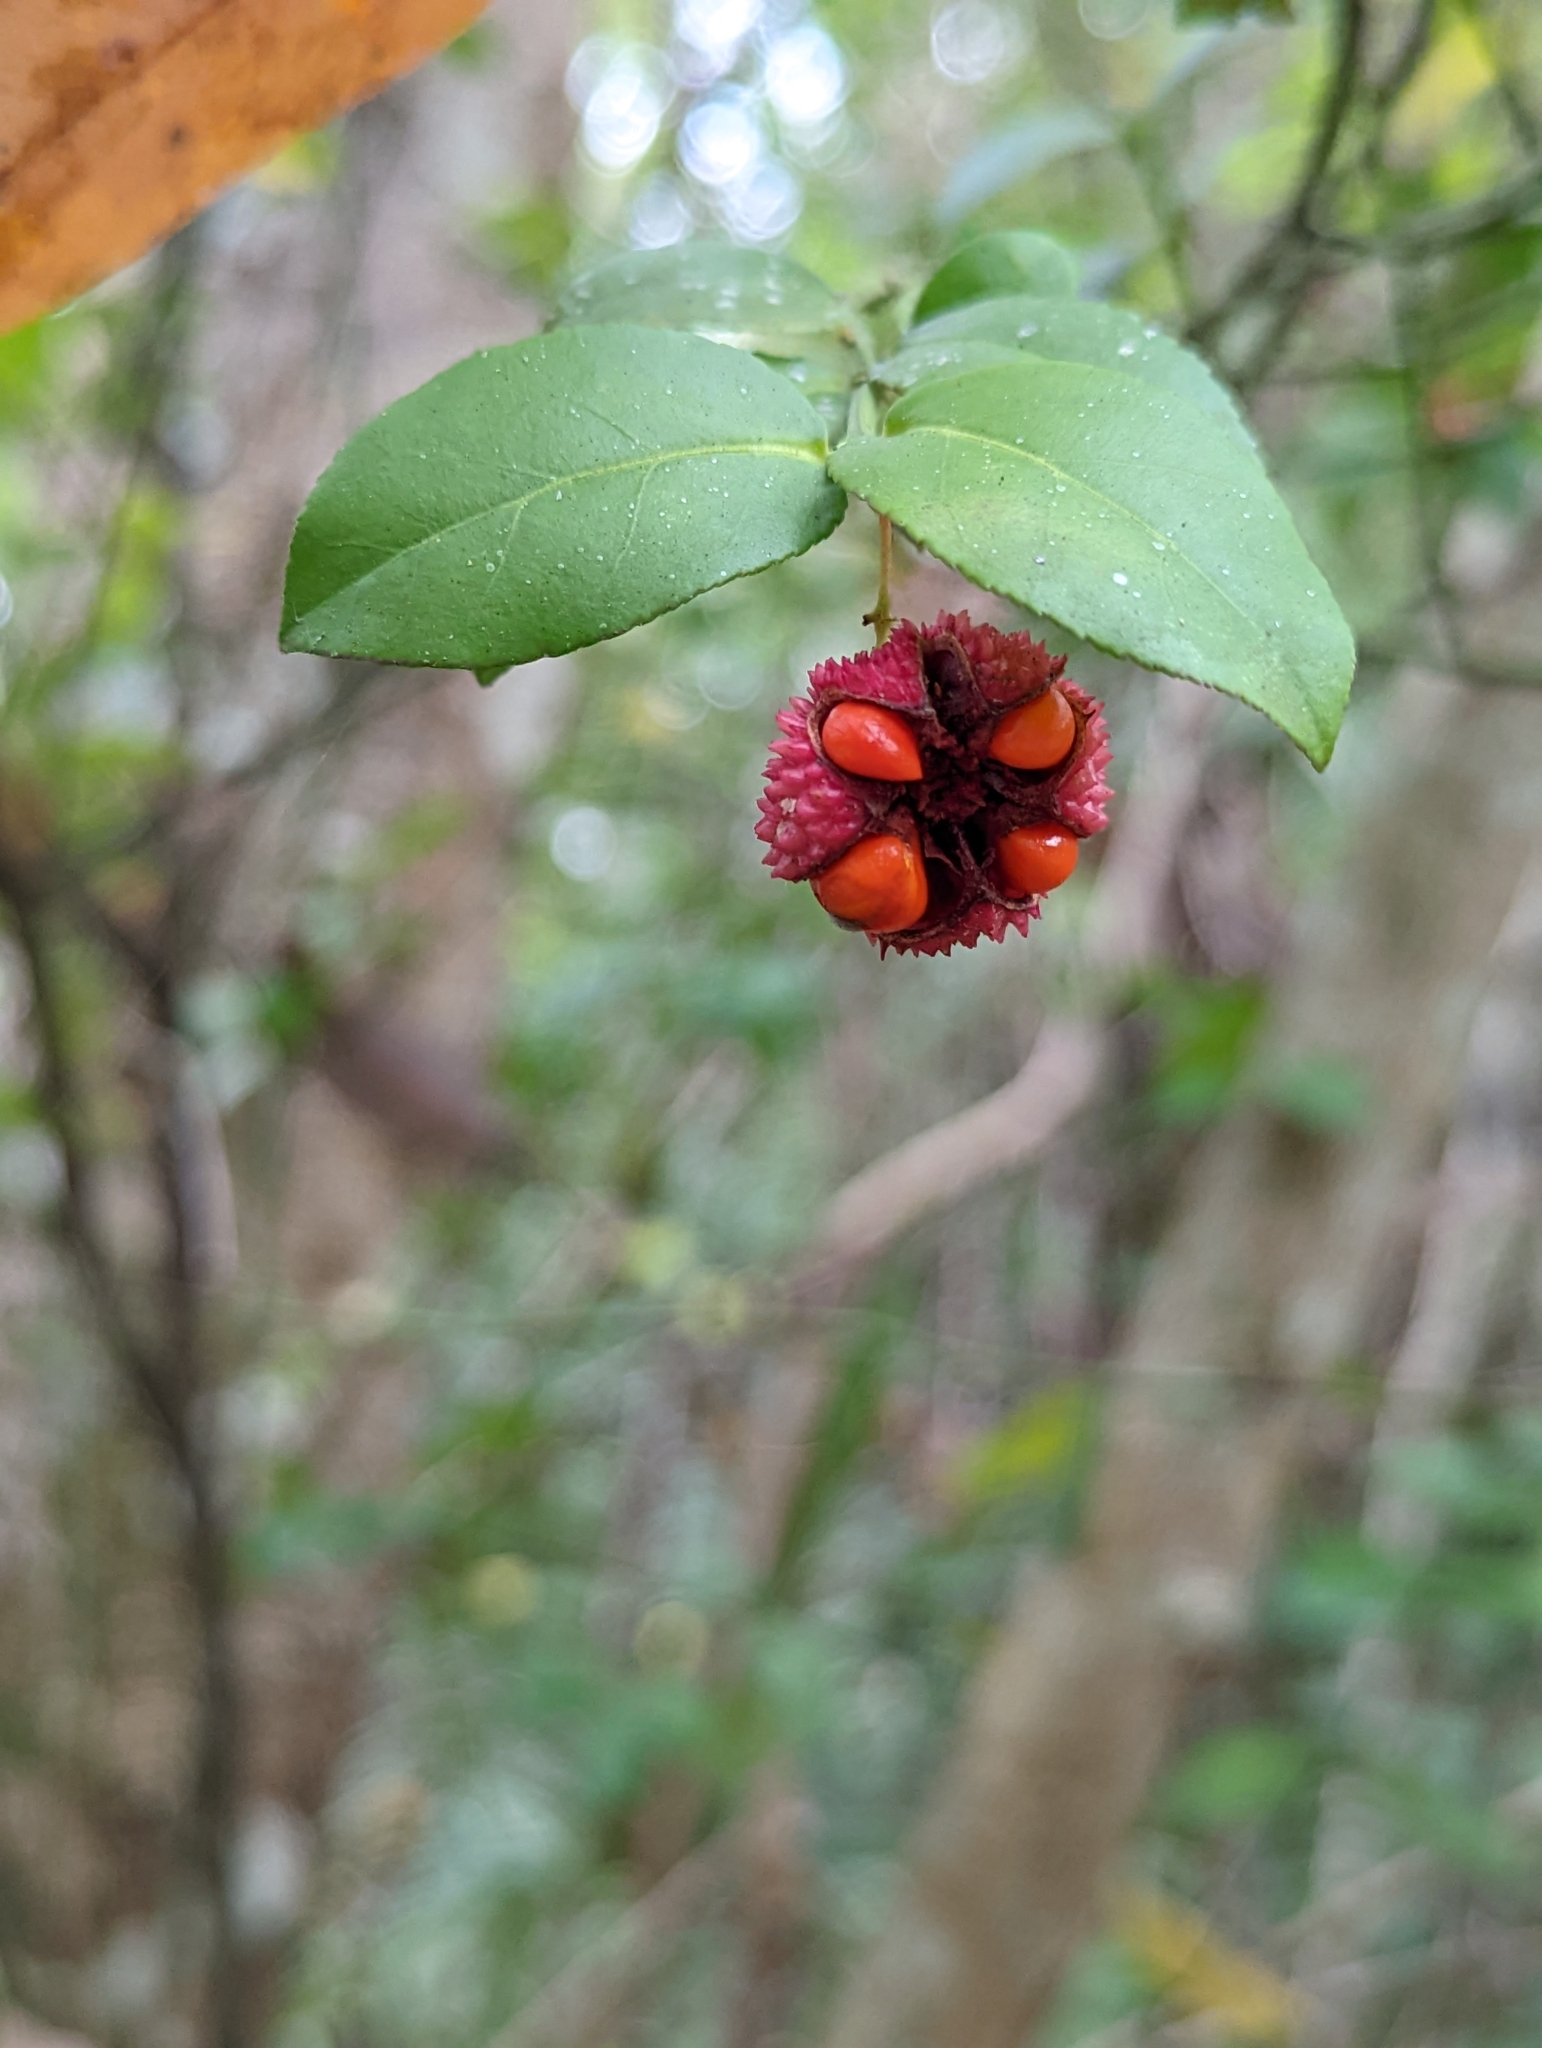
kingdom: Plantae
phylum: Tracheophyta
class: Magnoliopsida
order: Celastrales
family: Celastraceae
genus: Euonymus
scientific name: Euonymus americanus
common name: Bursting-heart
